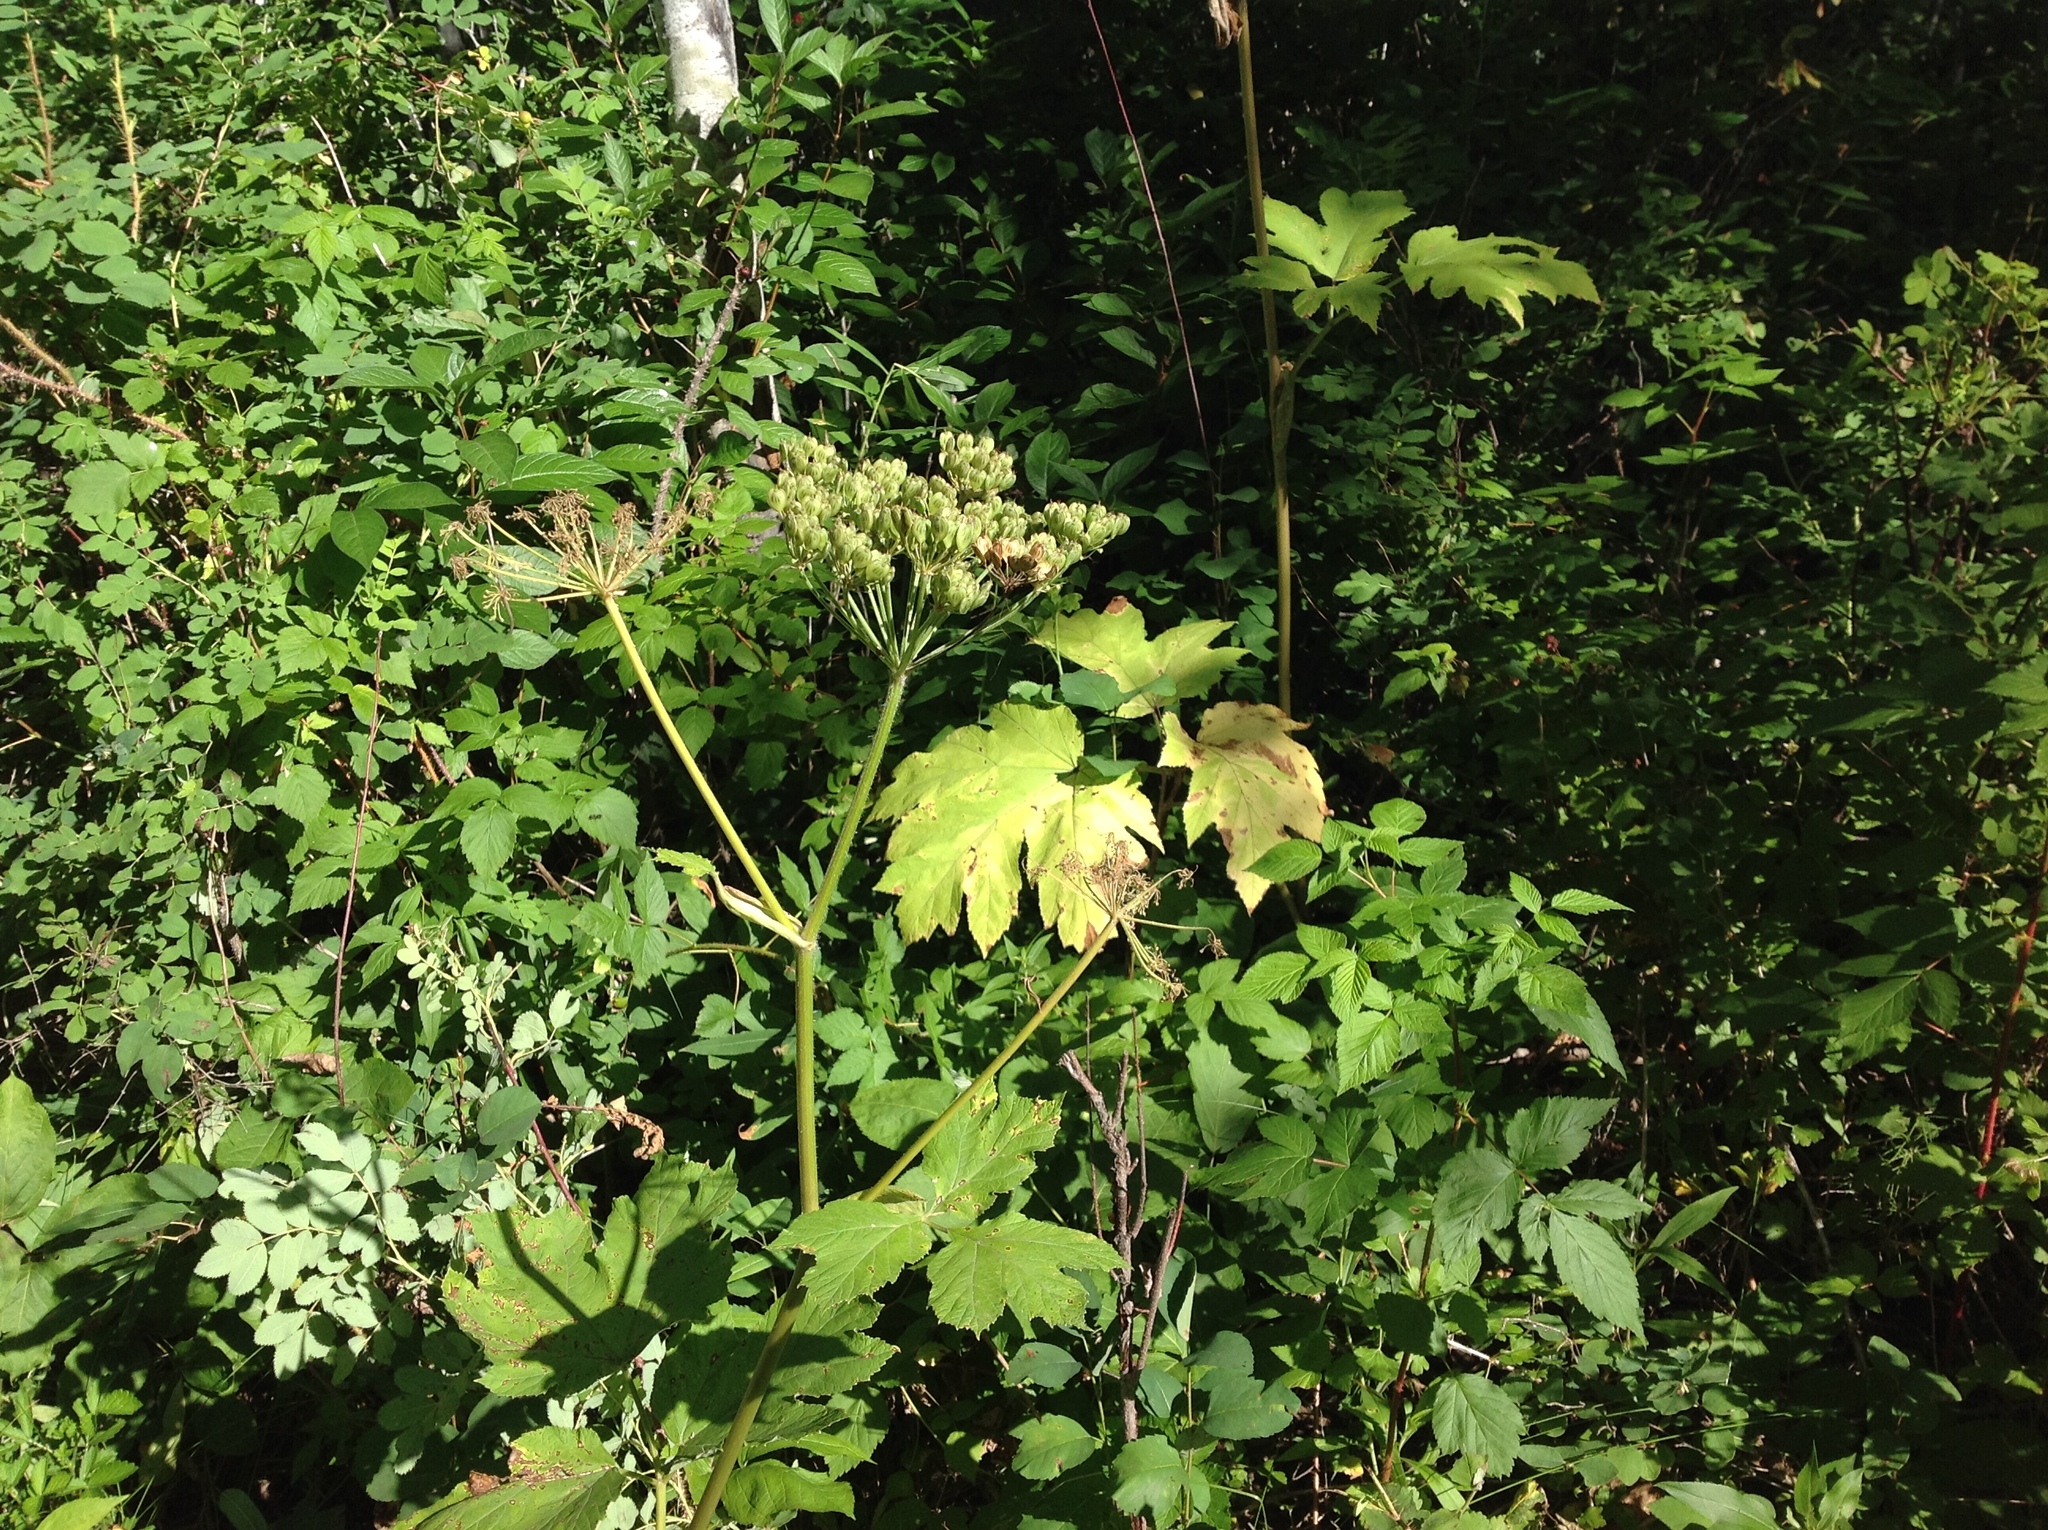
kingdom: Plantae
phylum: Tracheophyta
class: Magnoliopsida
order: Apiales
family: Apiaceae
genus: Heracleum
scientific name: Heracleum maximum
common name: American cow parsnip
